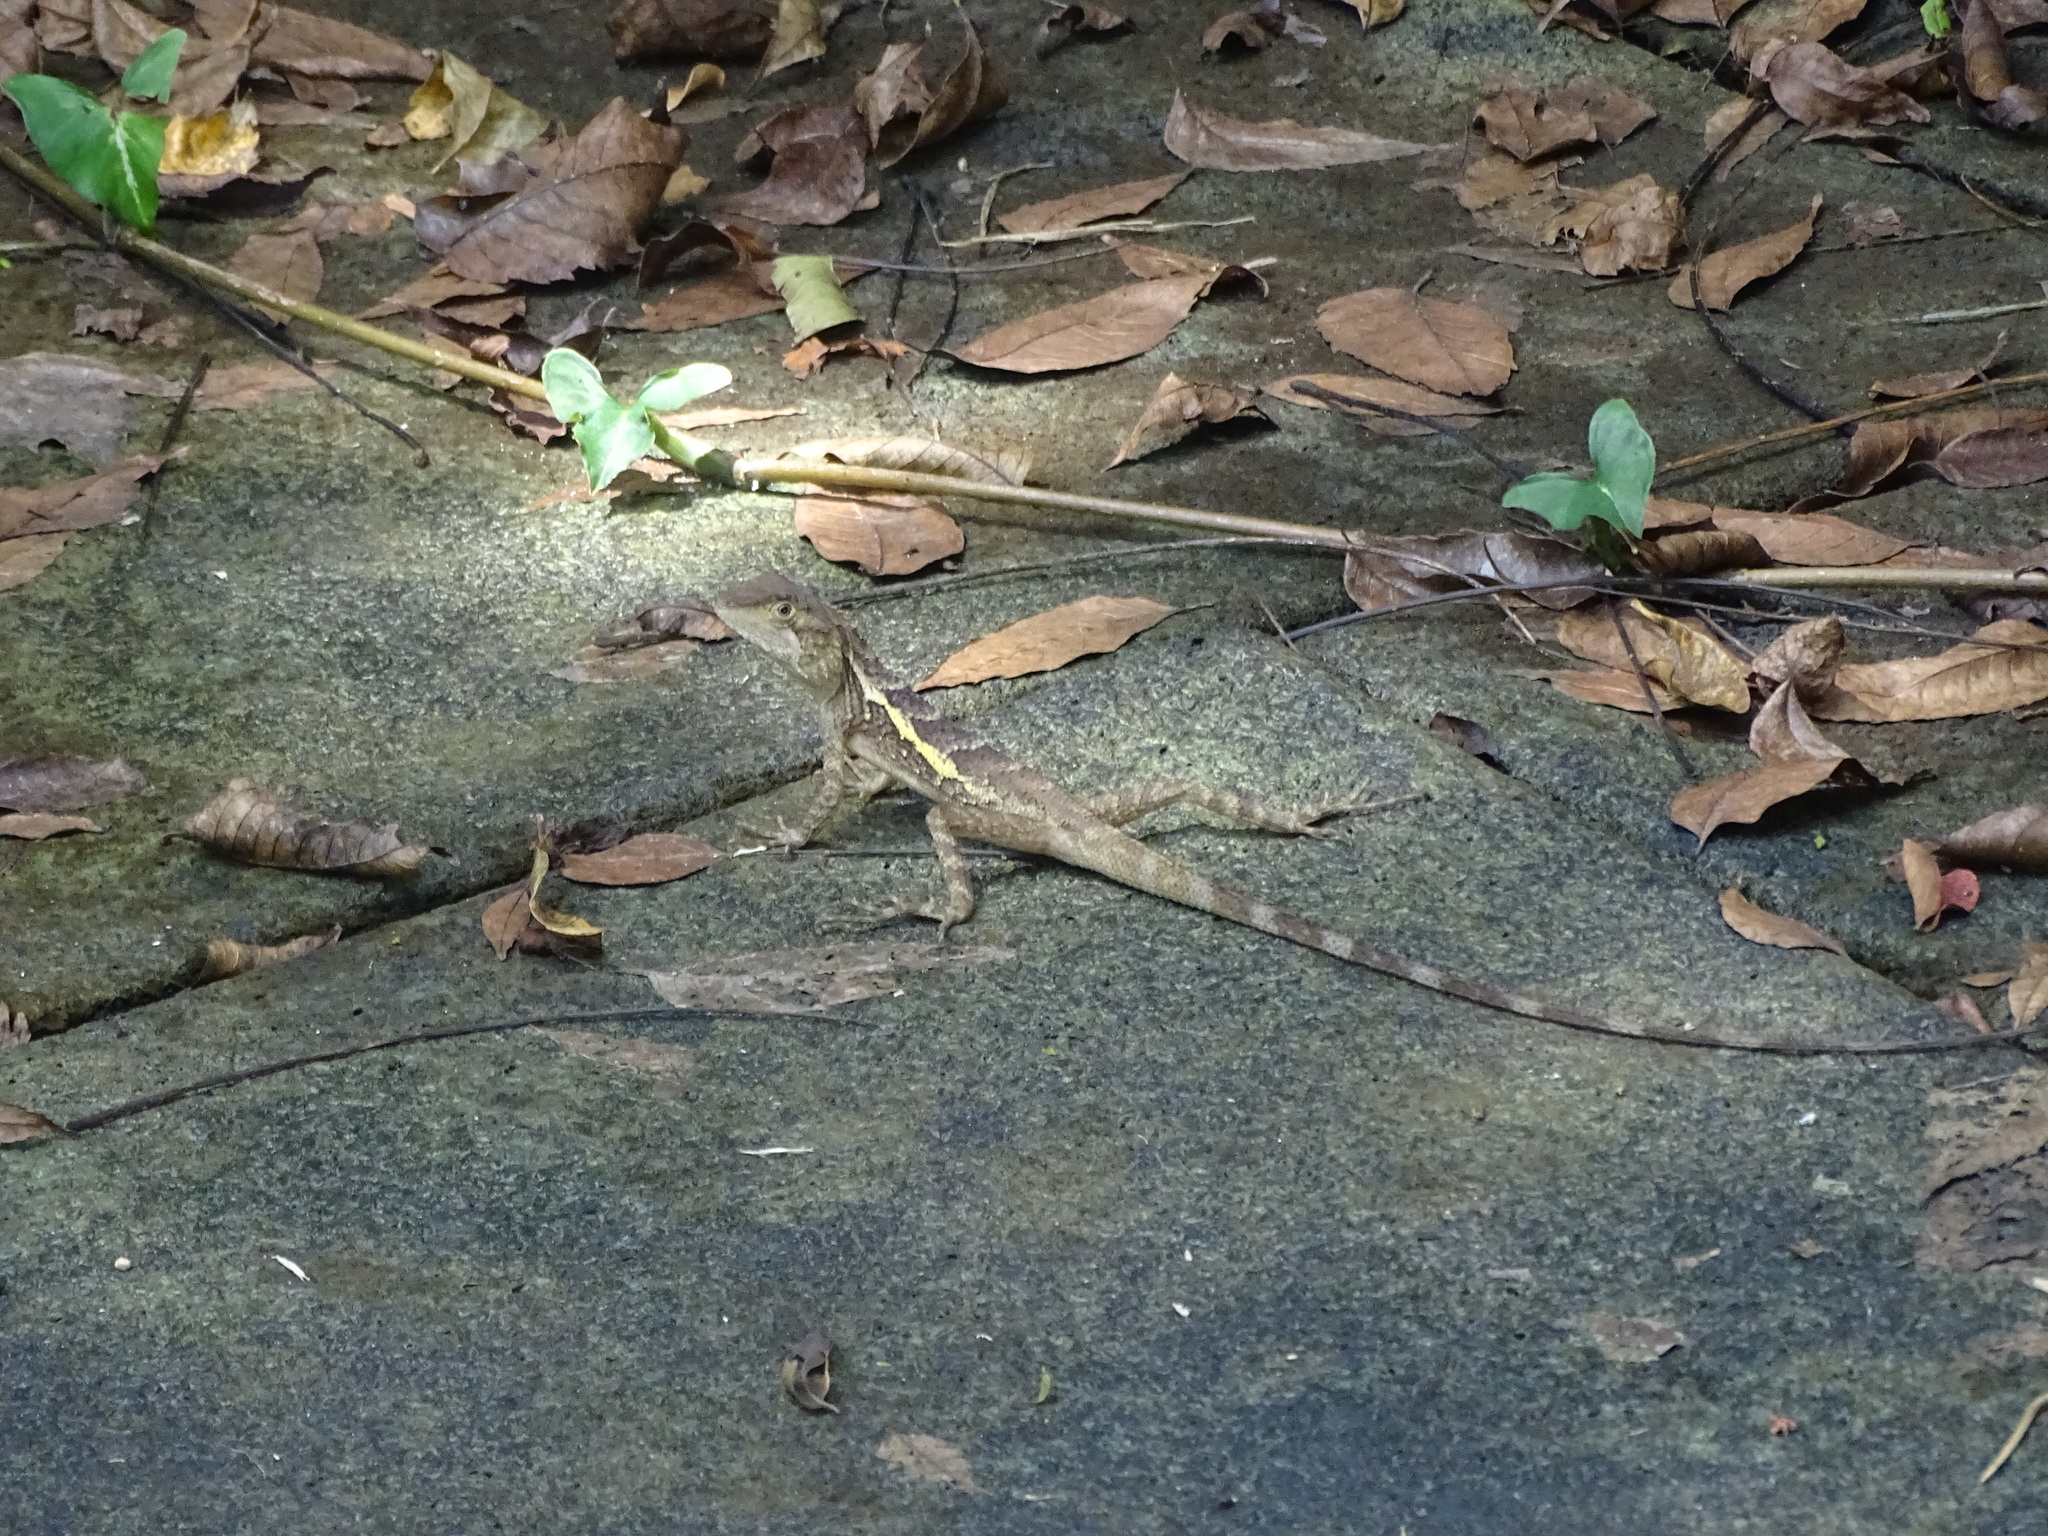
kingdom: Animalia
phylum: Chordata
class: Squamata
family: Agamidae
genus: Diploderma
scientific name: Diploderma swinhonis
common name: Taiwan japalure
